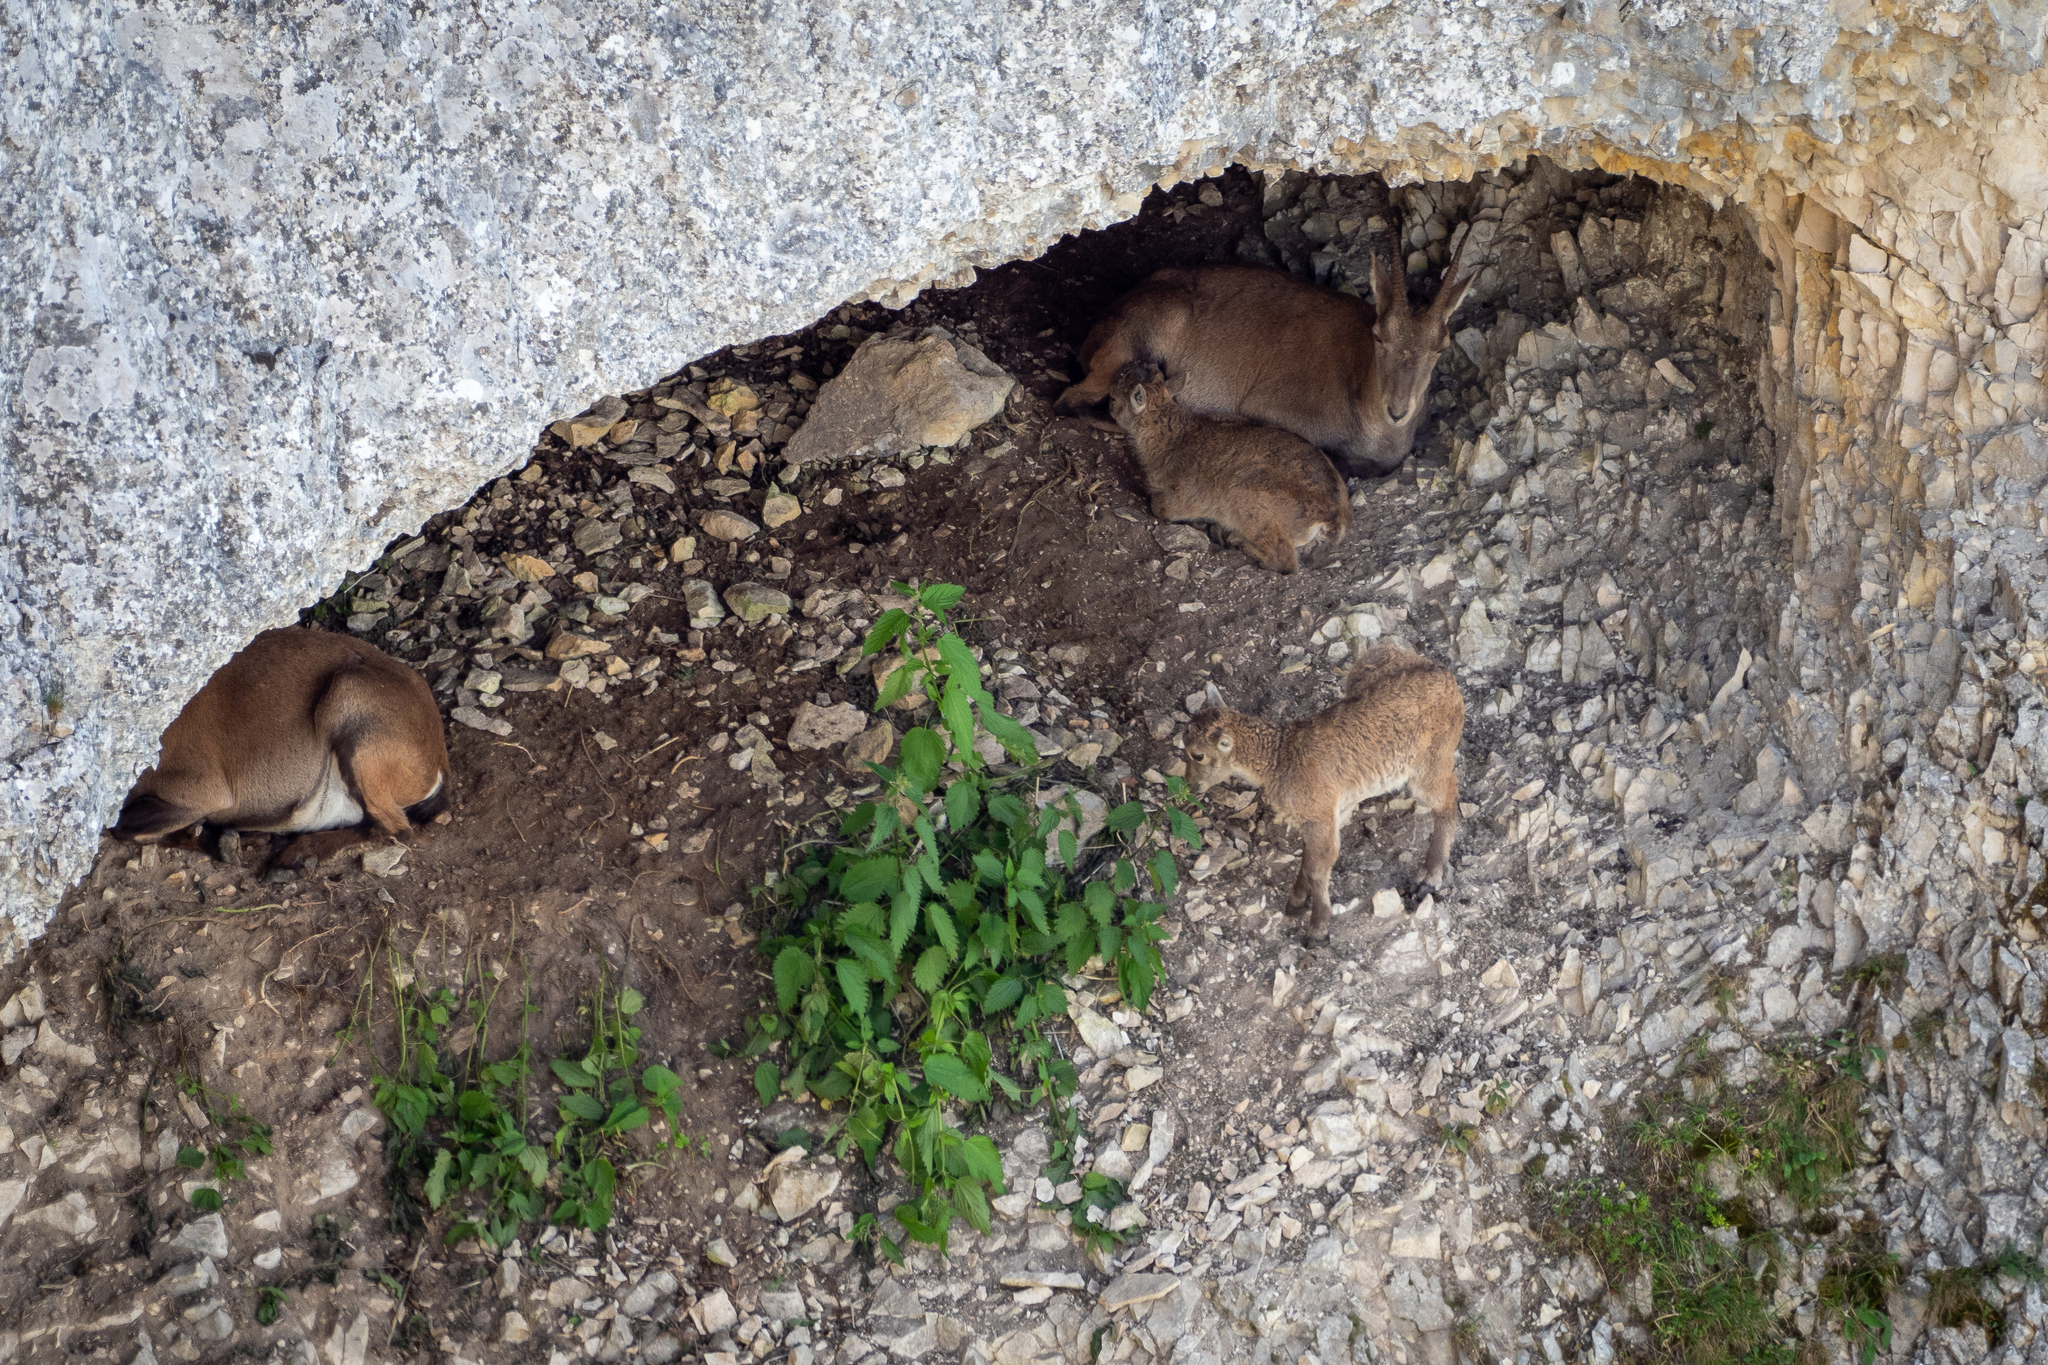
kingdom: Animalia
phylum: Chordata
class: Mammalia
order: Artiodactyla
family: Bovidae
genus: Capra
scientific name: Capra ibex
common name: Alpine ibex
